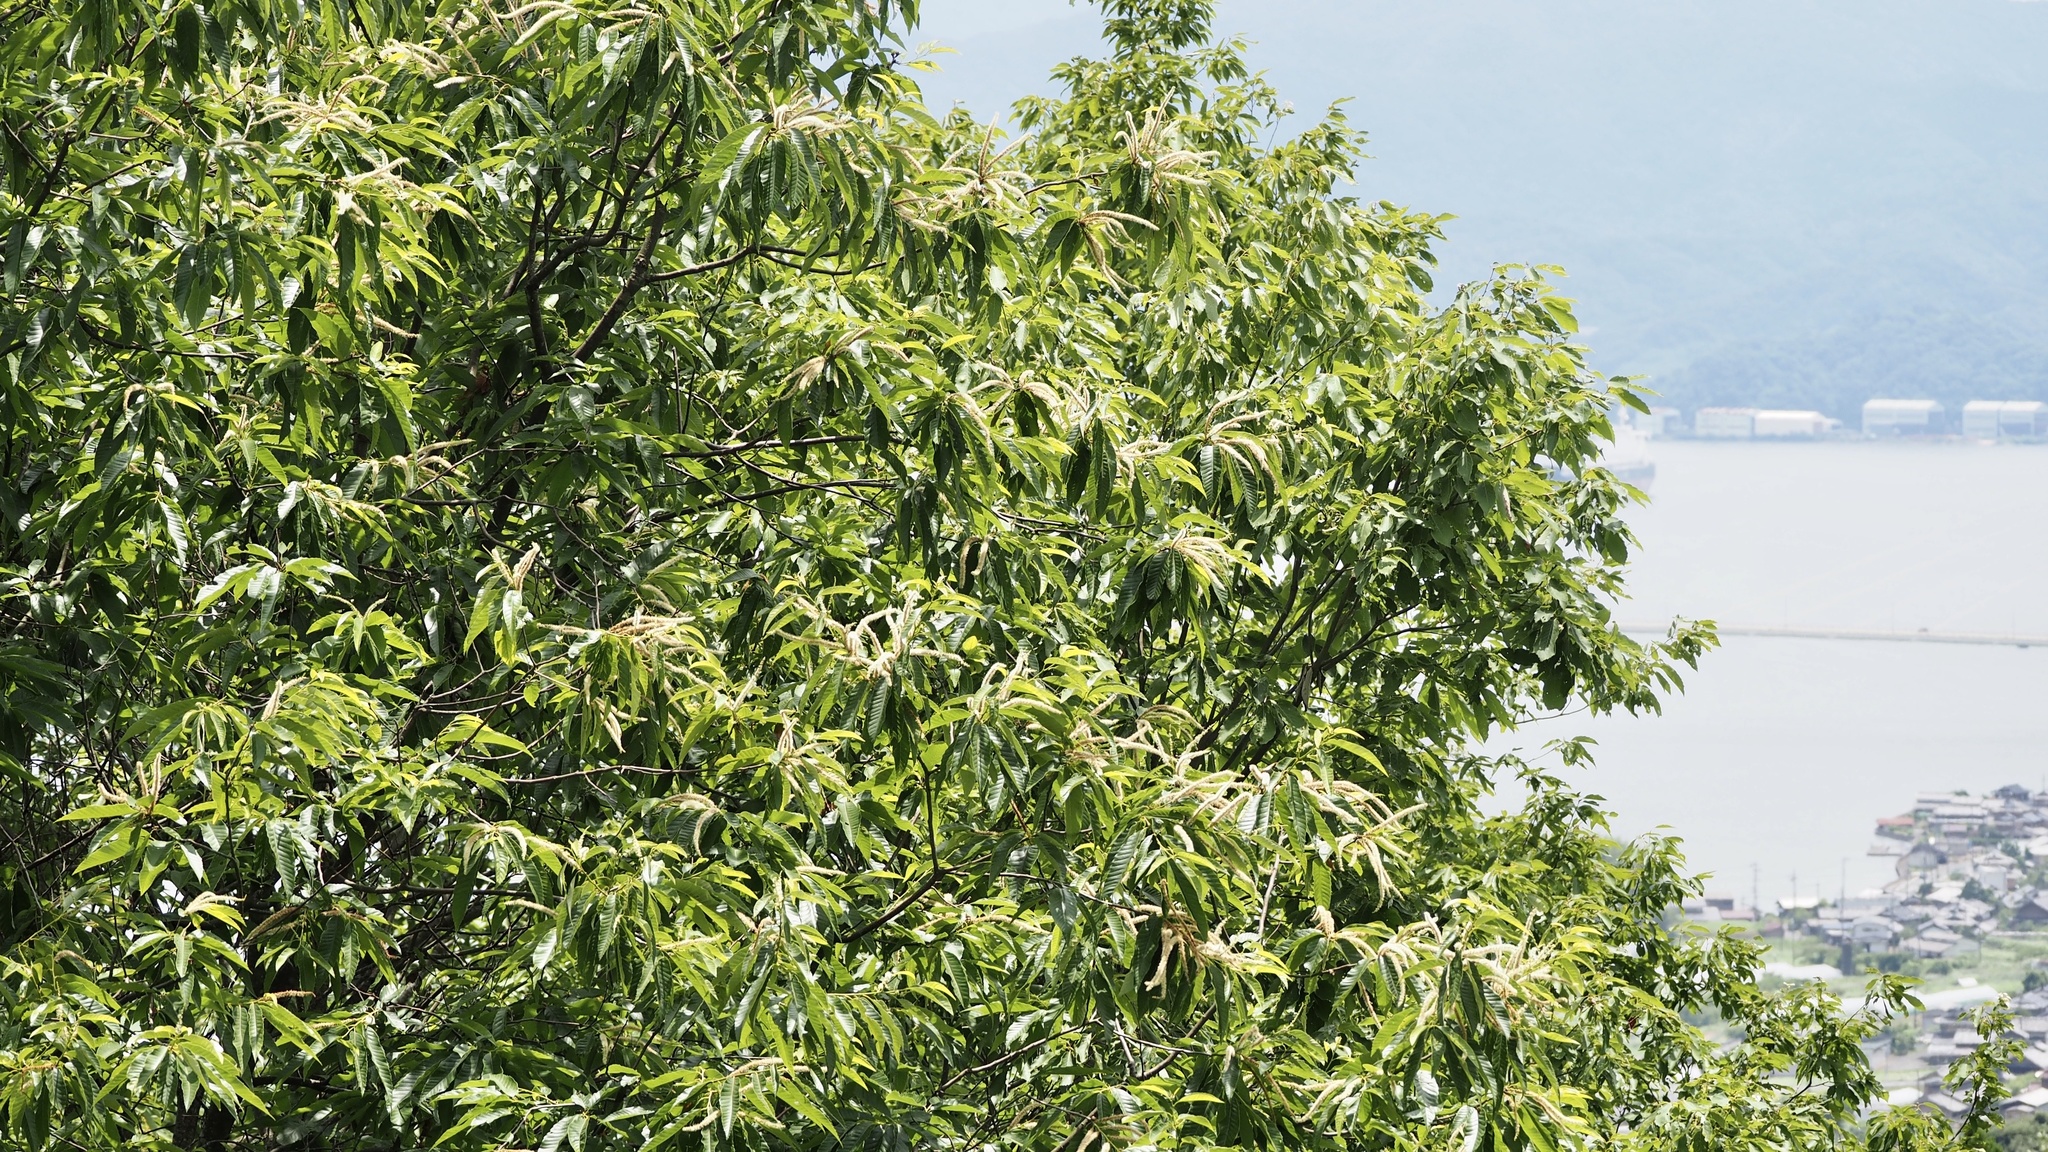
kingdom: Plantae
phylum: Tracheophyta
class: Magnoliopsida
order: Fagales
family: Fagaceae
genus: Castanea
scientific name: Castanea crenata
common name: Japanese chestnut
